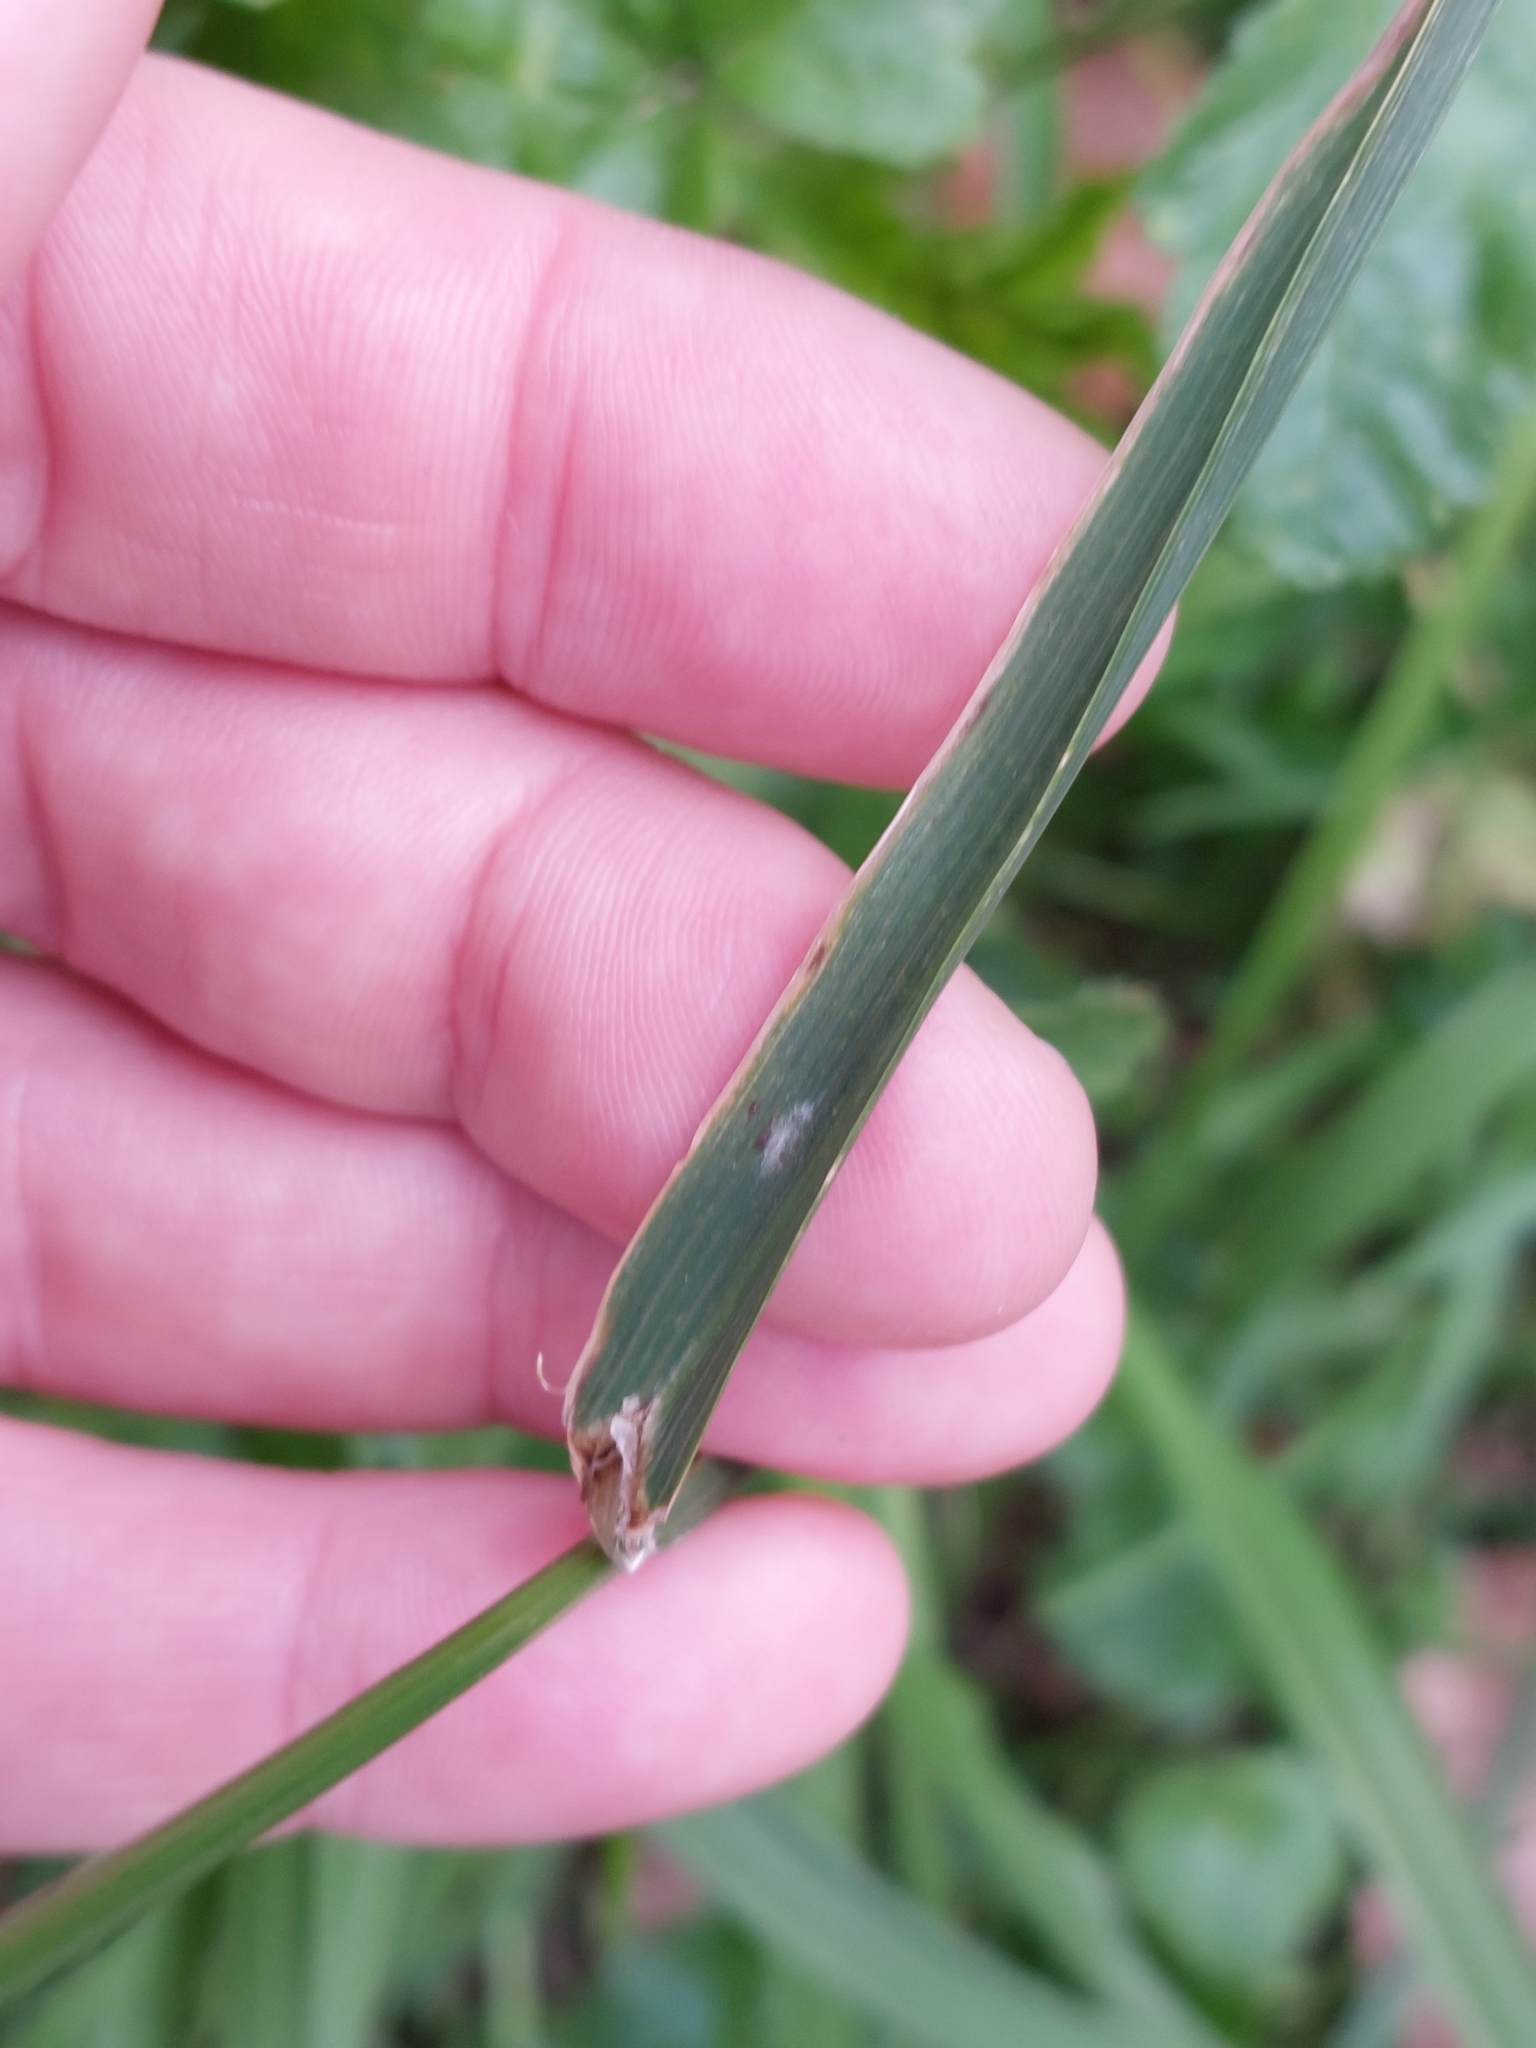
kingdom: Plantae
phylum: Tracheophyta
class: Liliopsida
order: Poales
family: Poaceae
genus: Bromus
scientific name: Bromus catharticus
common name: Rescuegrass
